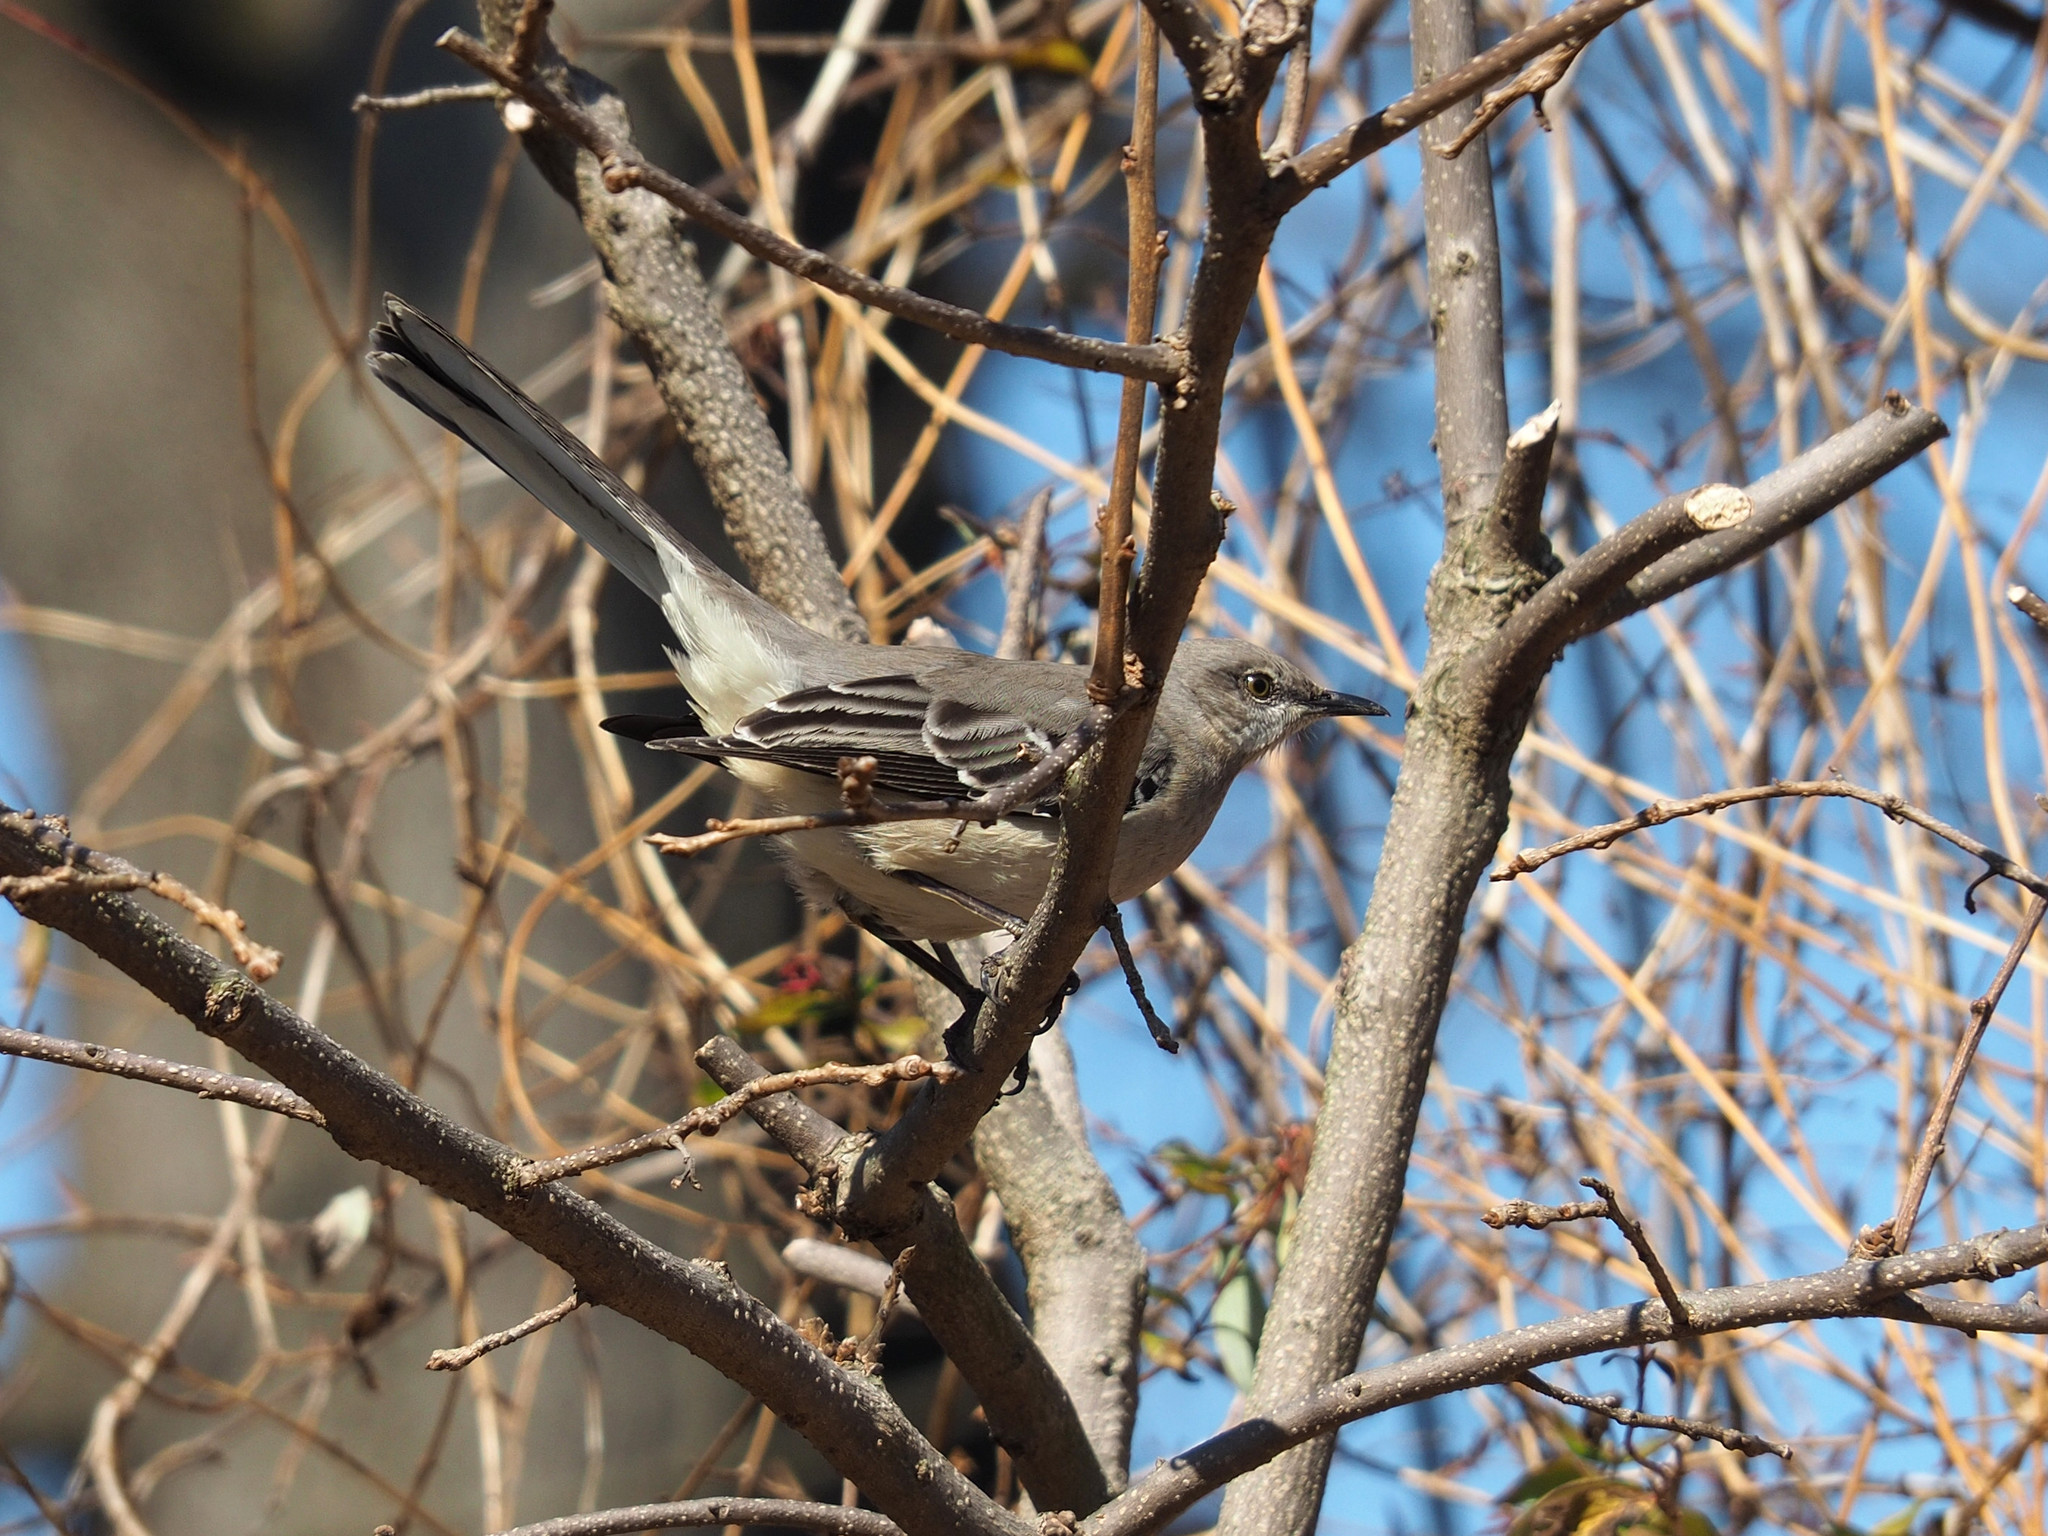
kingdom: Animalia
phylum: Chordata
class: Aves
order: Passeriformes
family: Mimidae
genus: Mimus
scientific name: Mimus polyglottos
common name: Northern mockingbird
